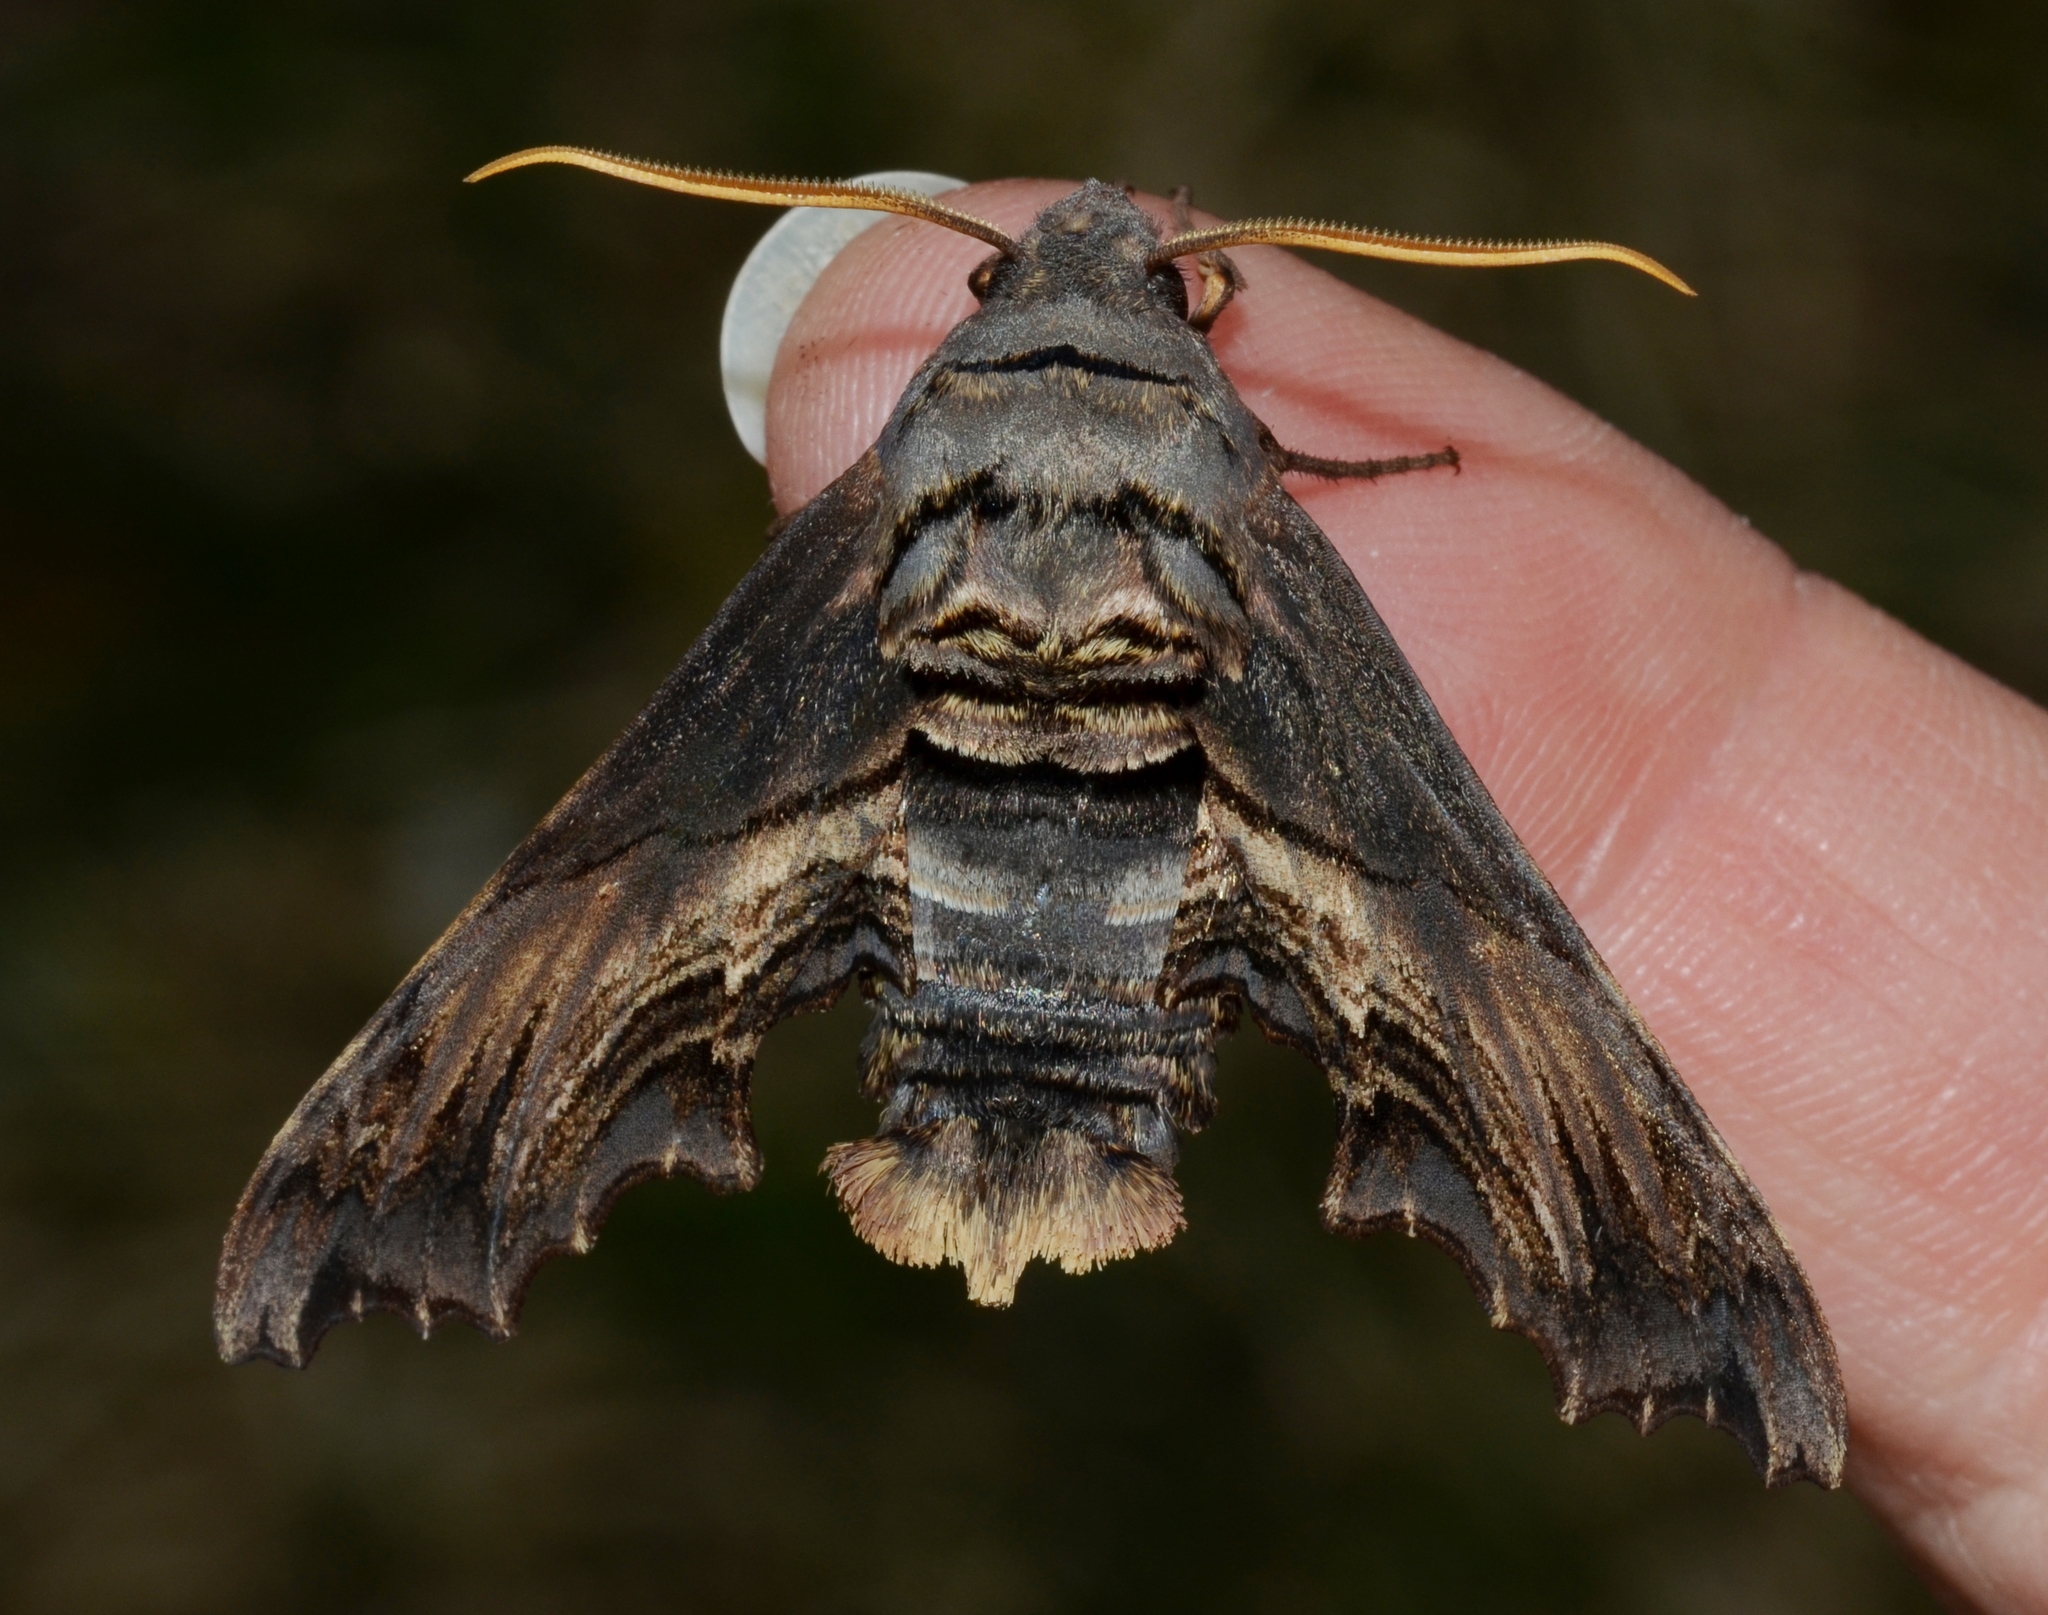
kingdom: Animalia
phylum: Arthropoda
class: Insecta
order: Lepidoptera
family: Sphingidae
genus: Sphecodina
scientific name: Sphecodina abbottii
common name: Abbott's sphinx
